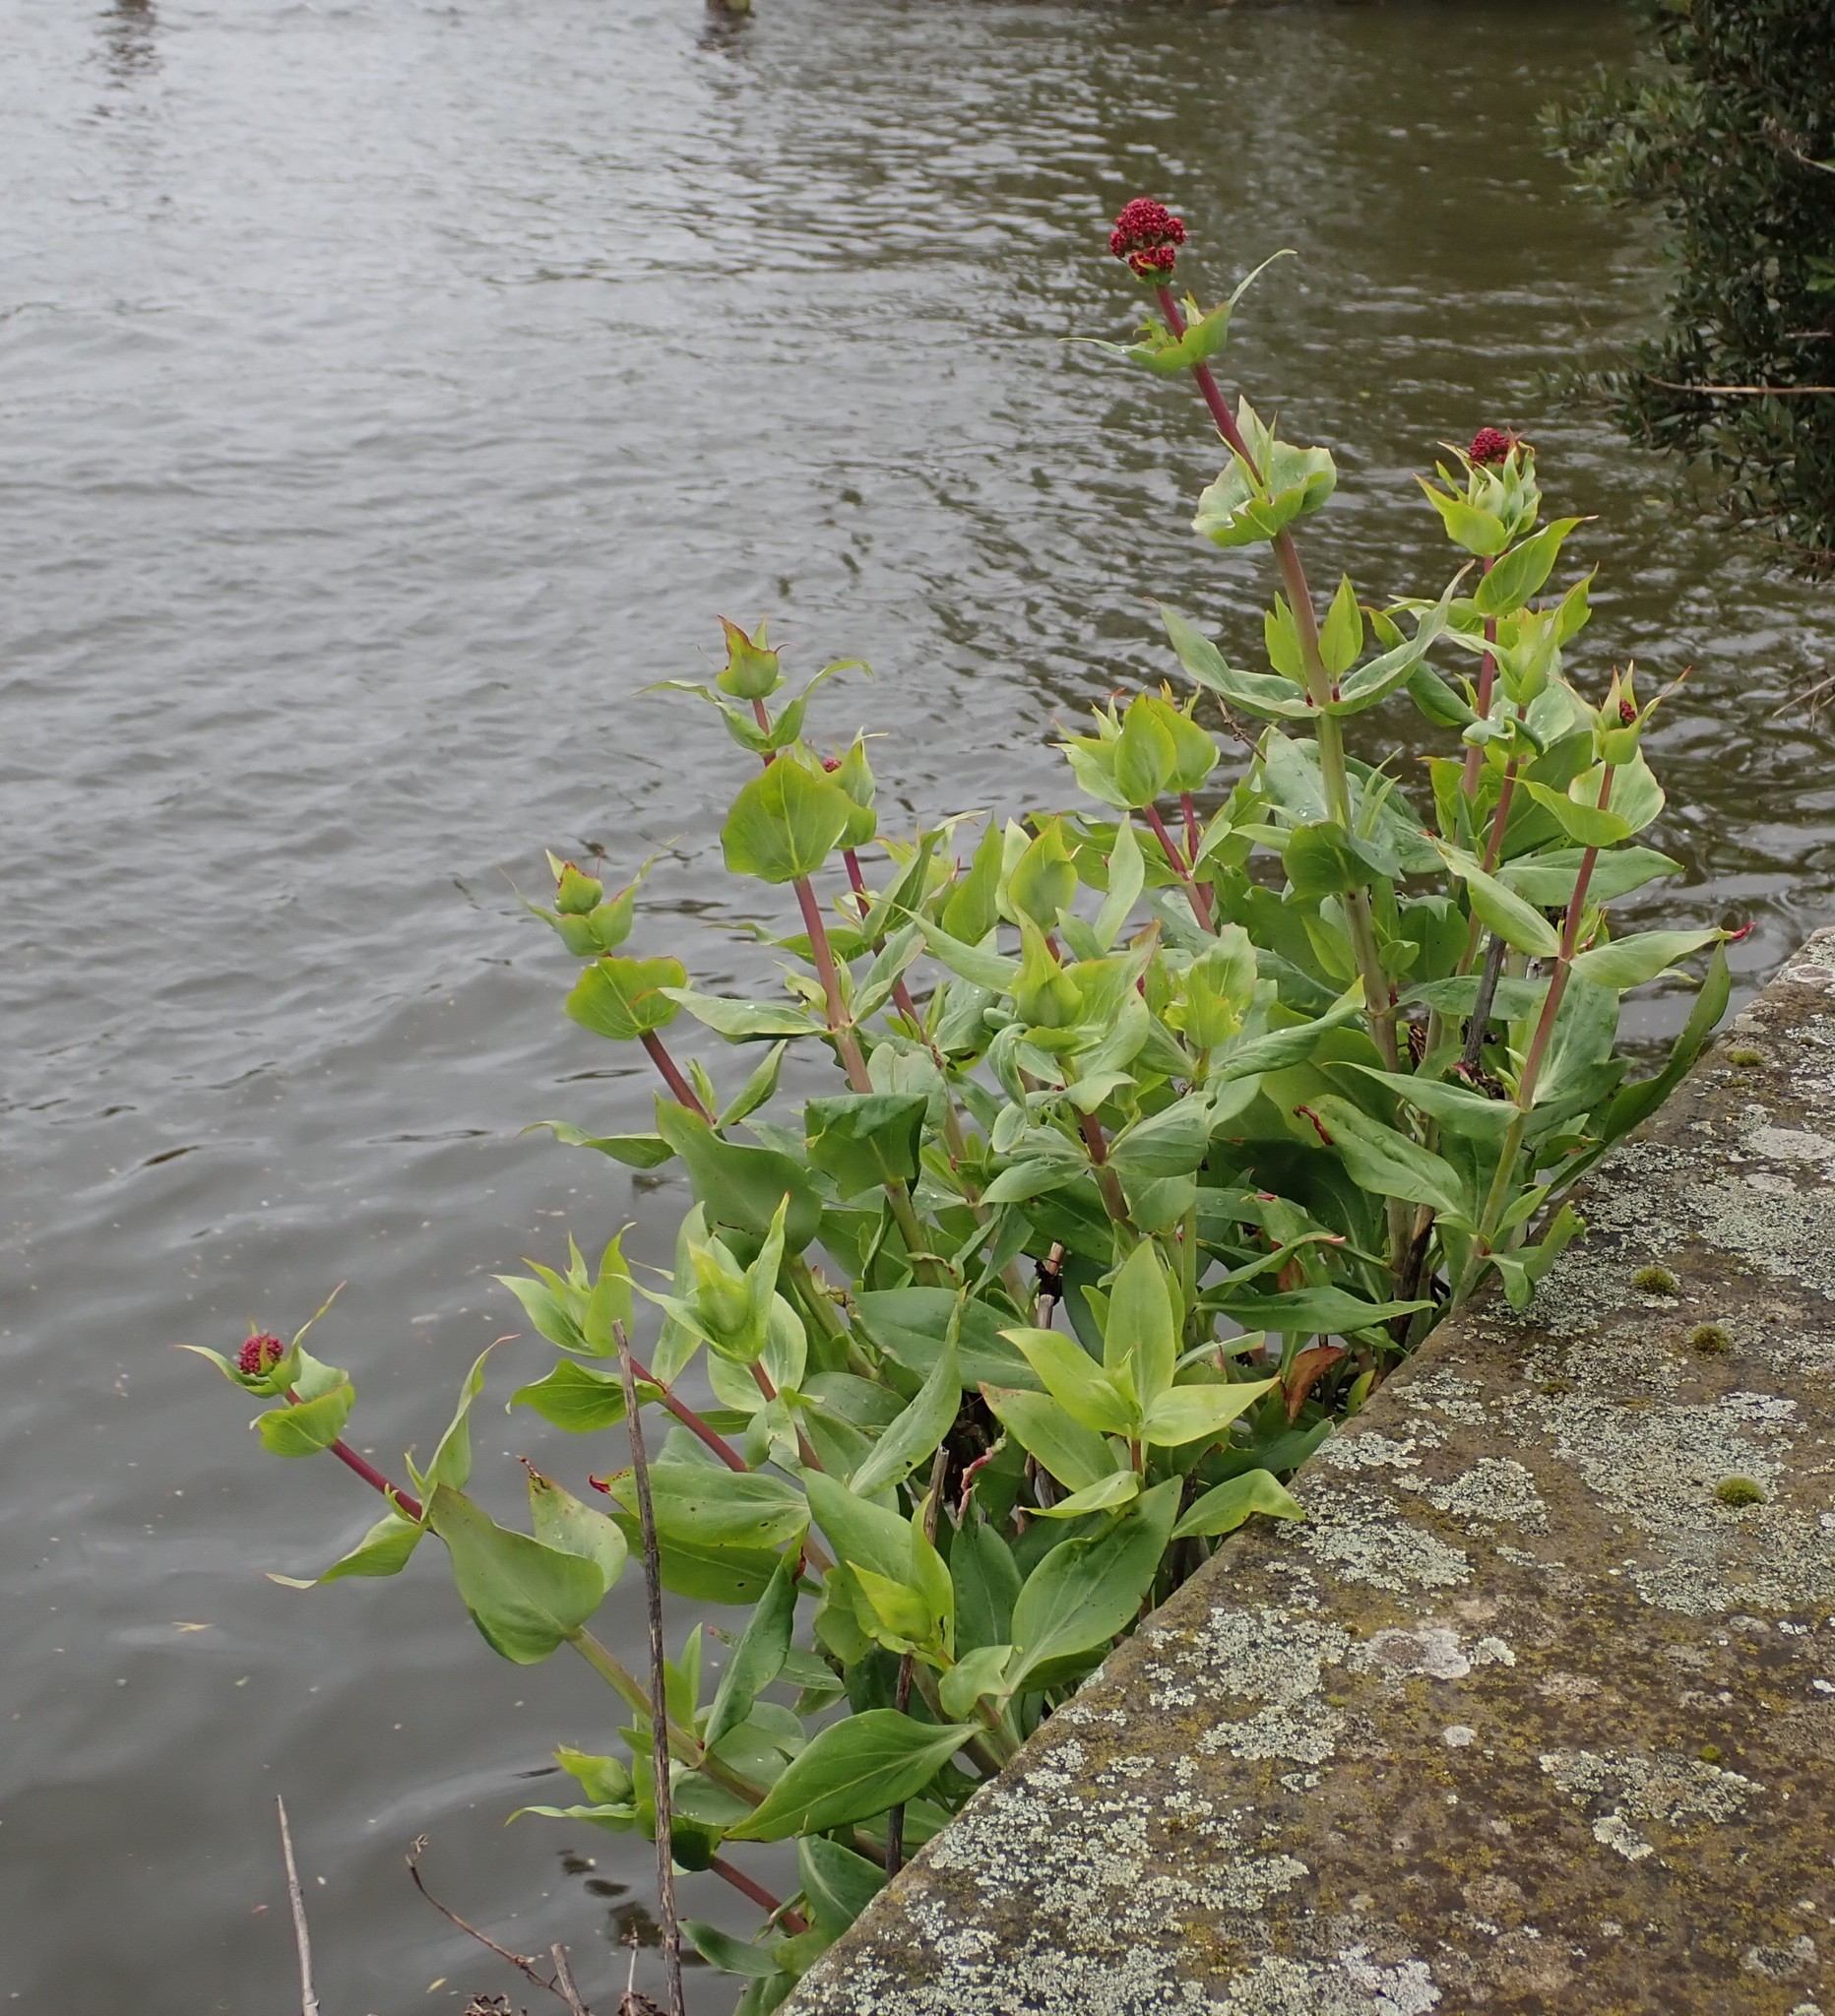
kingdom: Plantae
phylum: Tracheophyta
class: Magnoliopsida
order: Dipsacales
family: Caprifoliaceae
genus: Centranthus
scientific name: Centranthus ruber
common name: Red valerian
